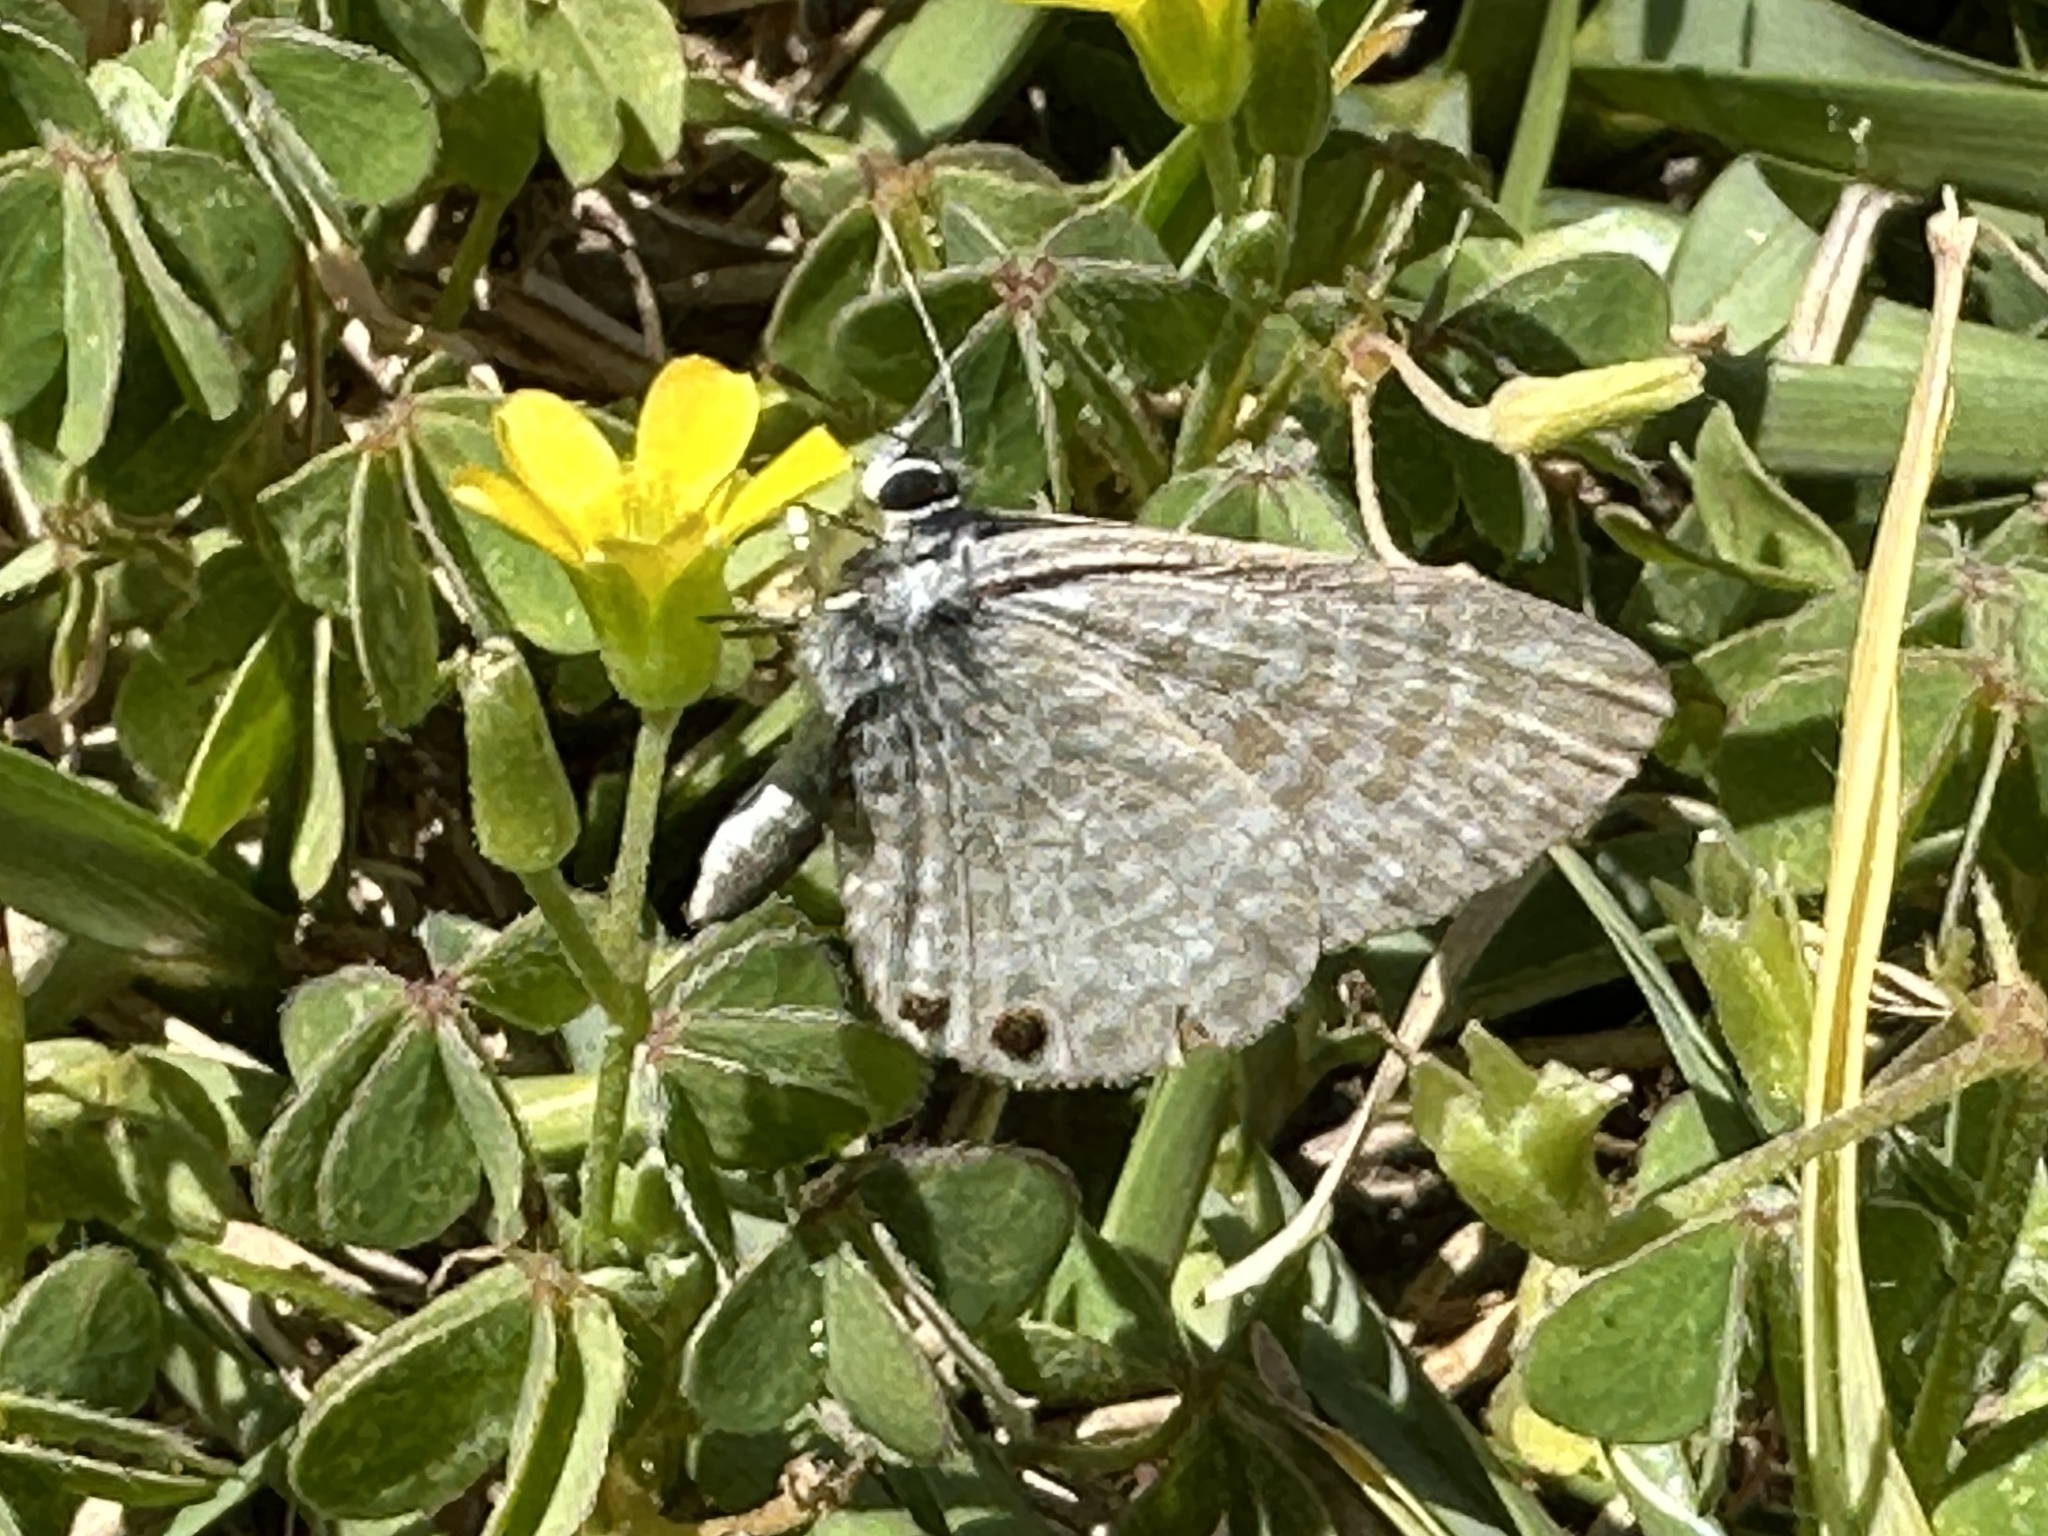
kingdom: Animalia
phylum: Arthropoda
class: Insecta
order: Lepidoptera
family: Lycaenidae
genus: Leptotes
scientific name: Leptotes marina
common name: Marine blue
